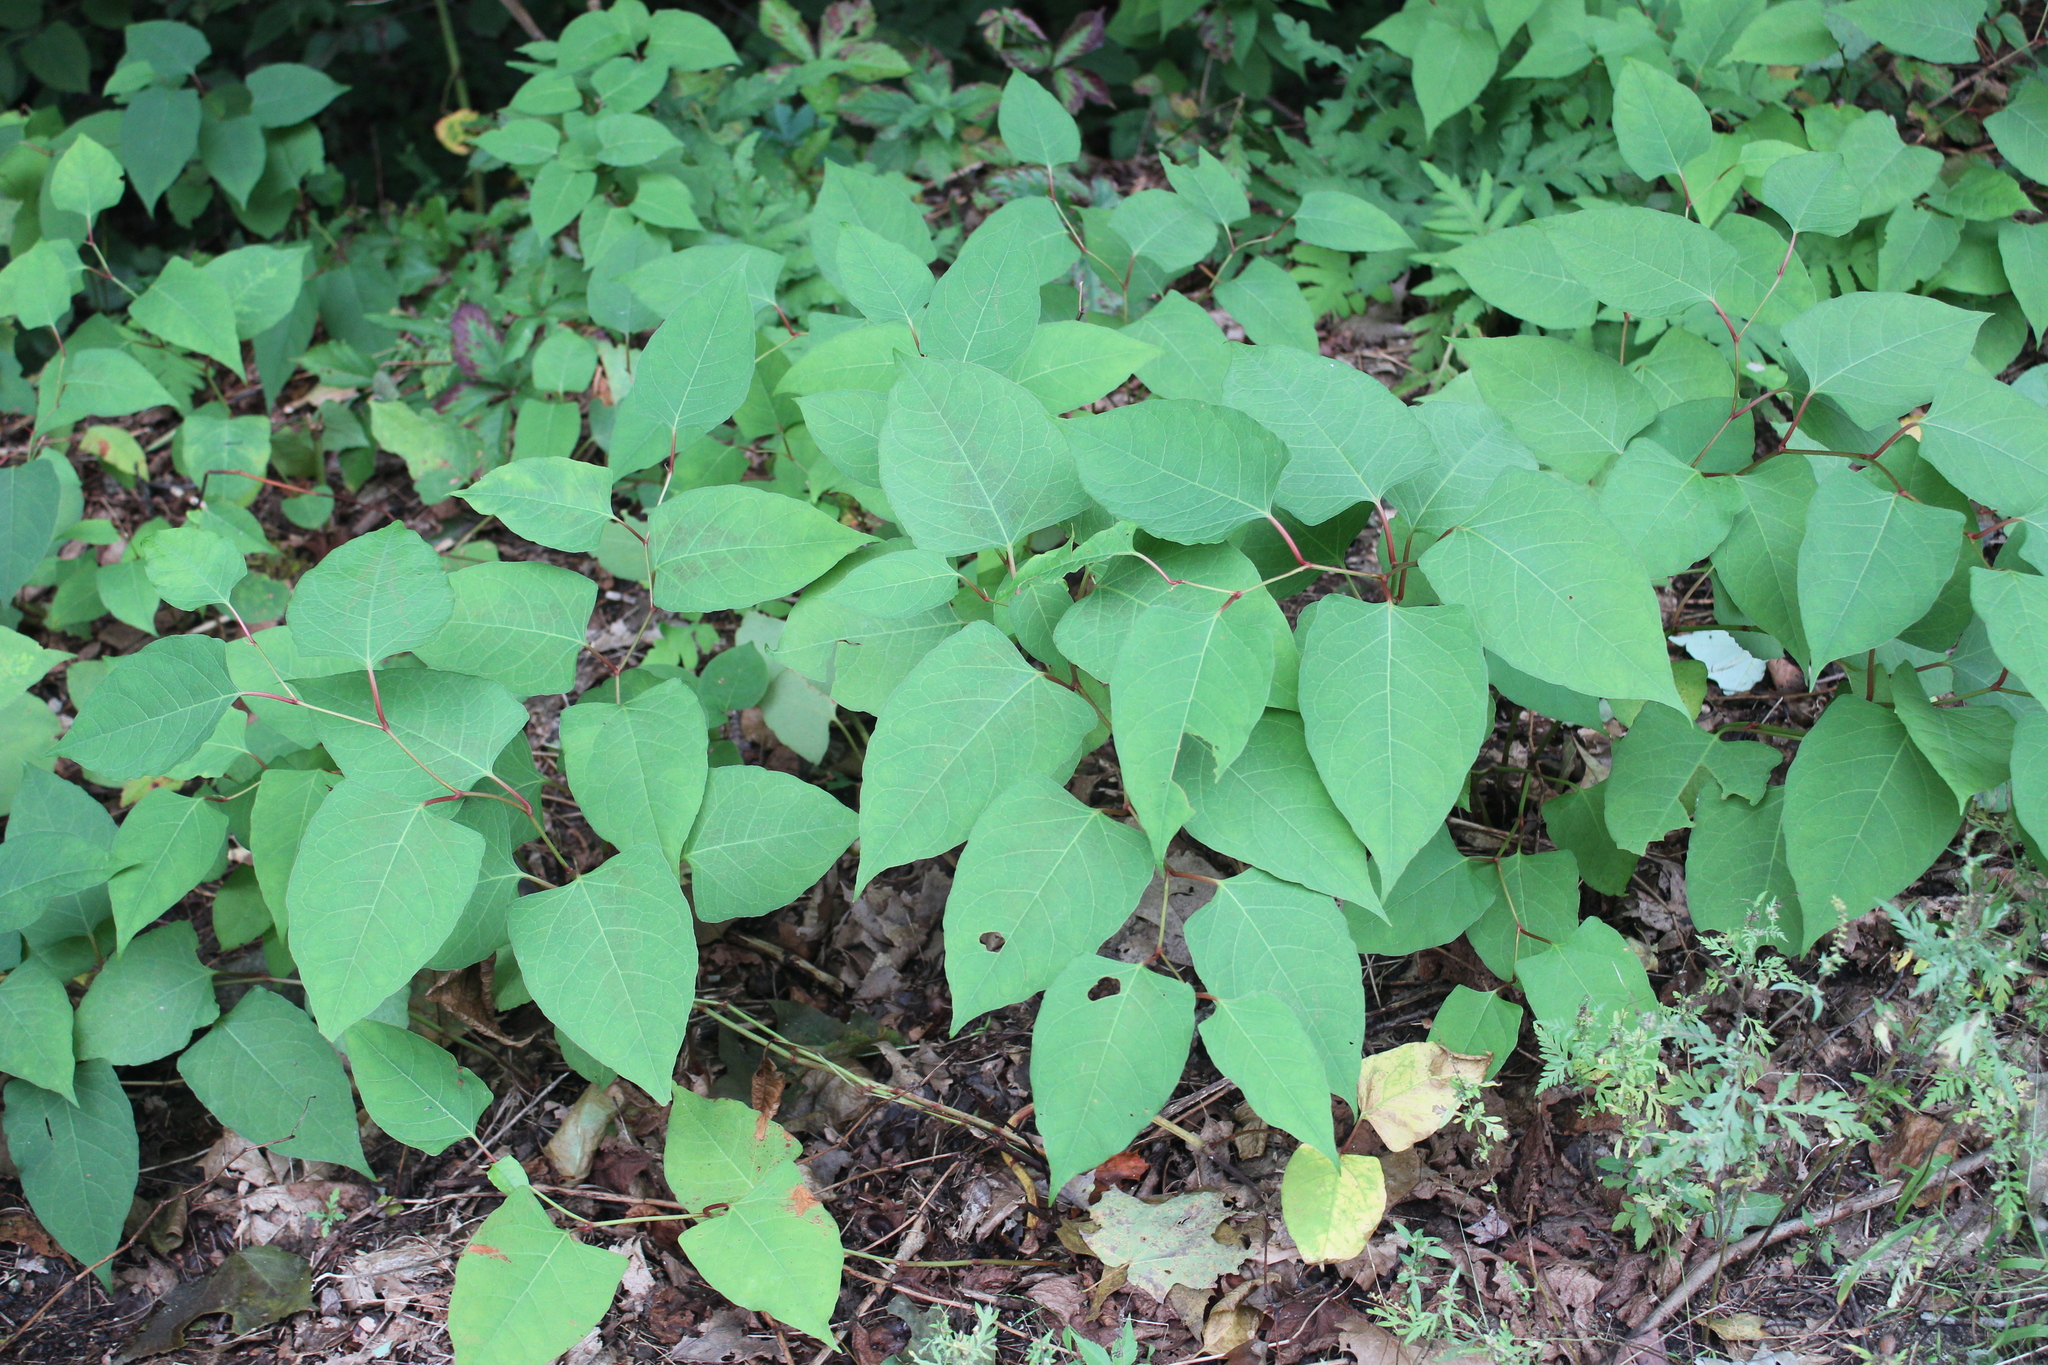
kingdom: Plantae
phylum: Tracheophyta
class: Magnoliopsida
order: Caryophyllales
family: Polygonaceae
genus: Reynoutria
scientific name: Reynoutria japonica
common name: Japanese knotweed
